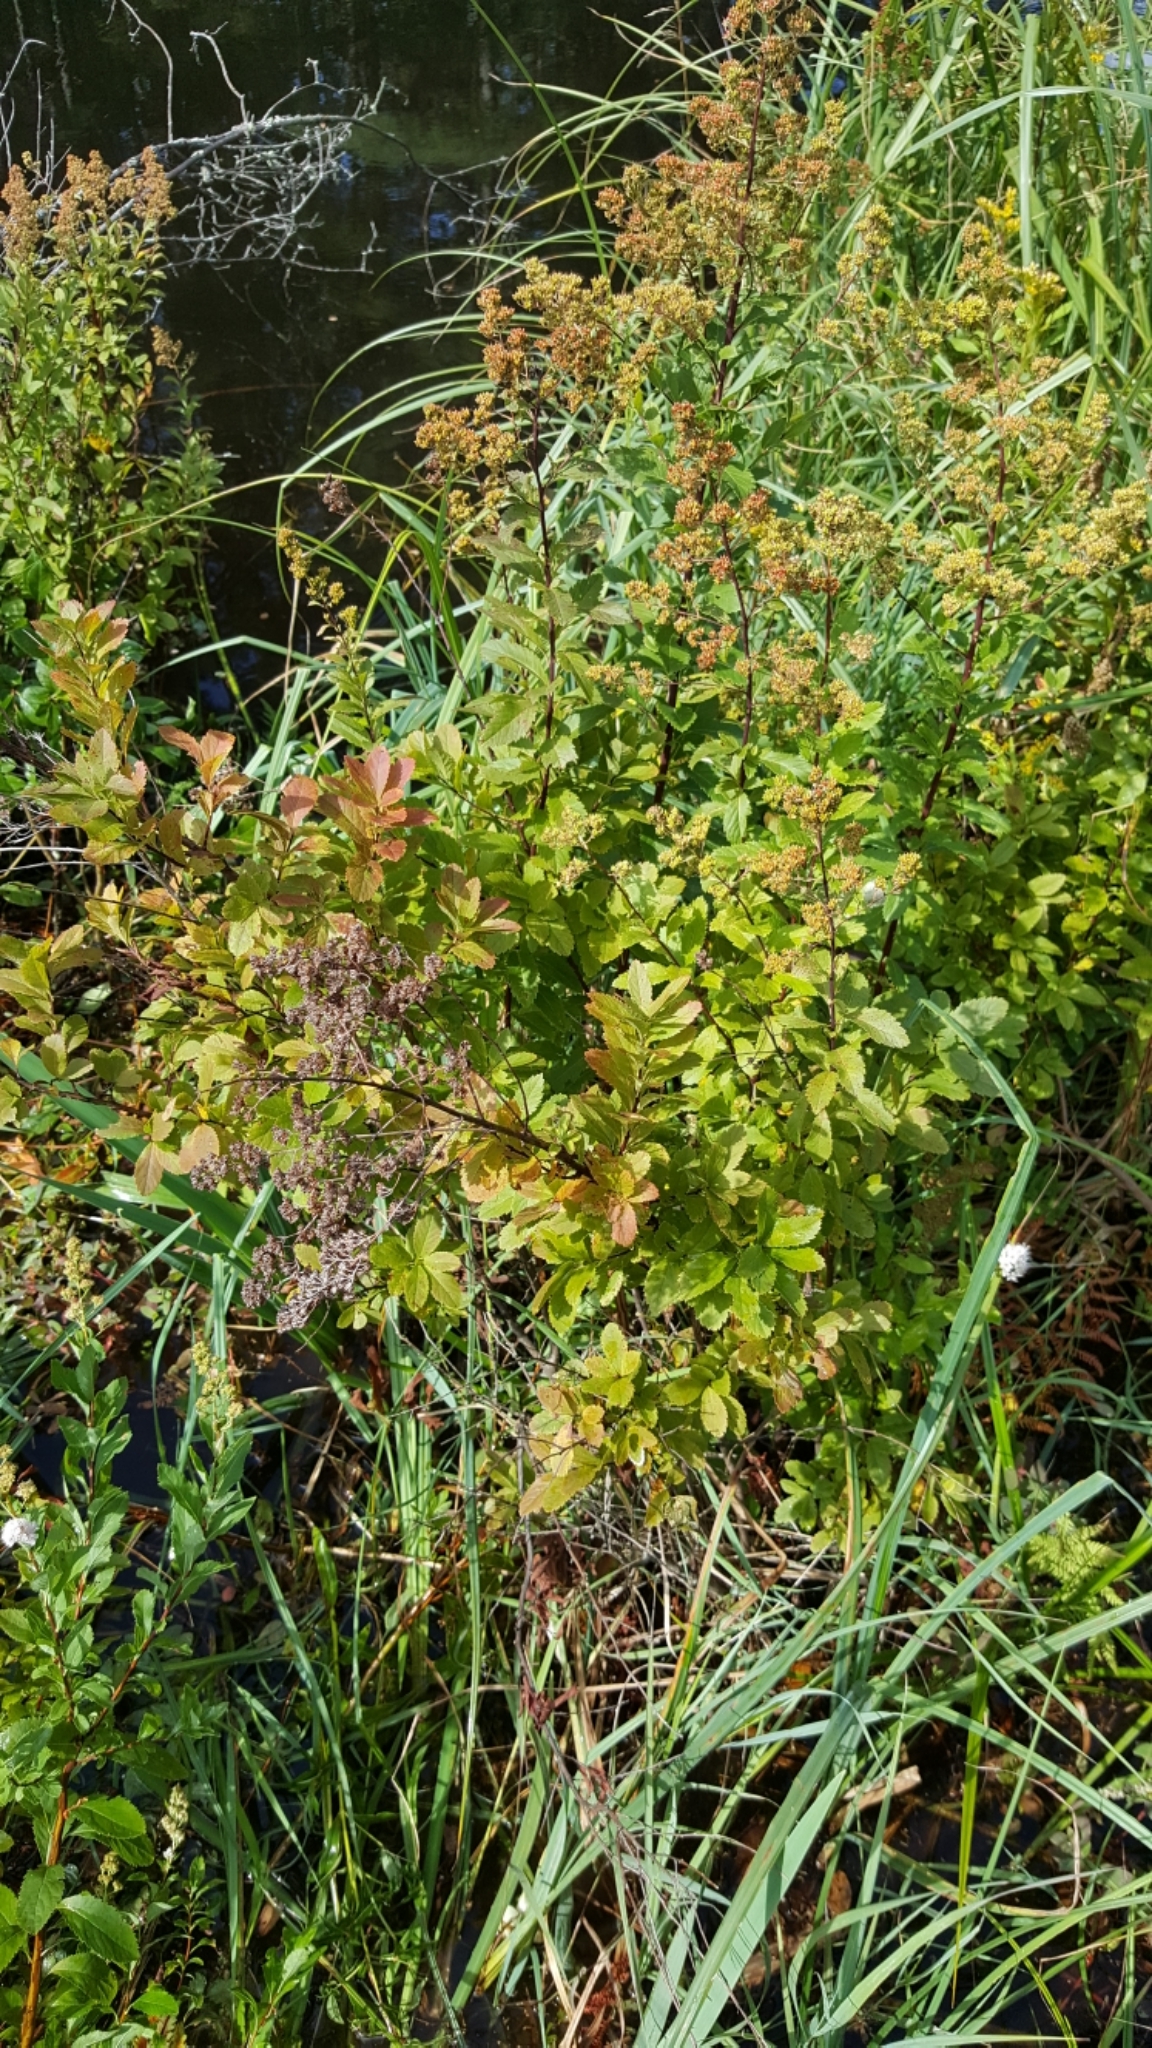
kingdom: Plantae
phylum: Tracheophyta
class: Magnoliopsida
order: Rosales
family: Rosaceae
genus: Spiraea
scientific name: Spiraea alba
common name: Pale bridewort
